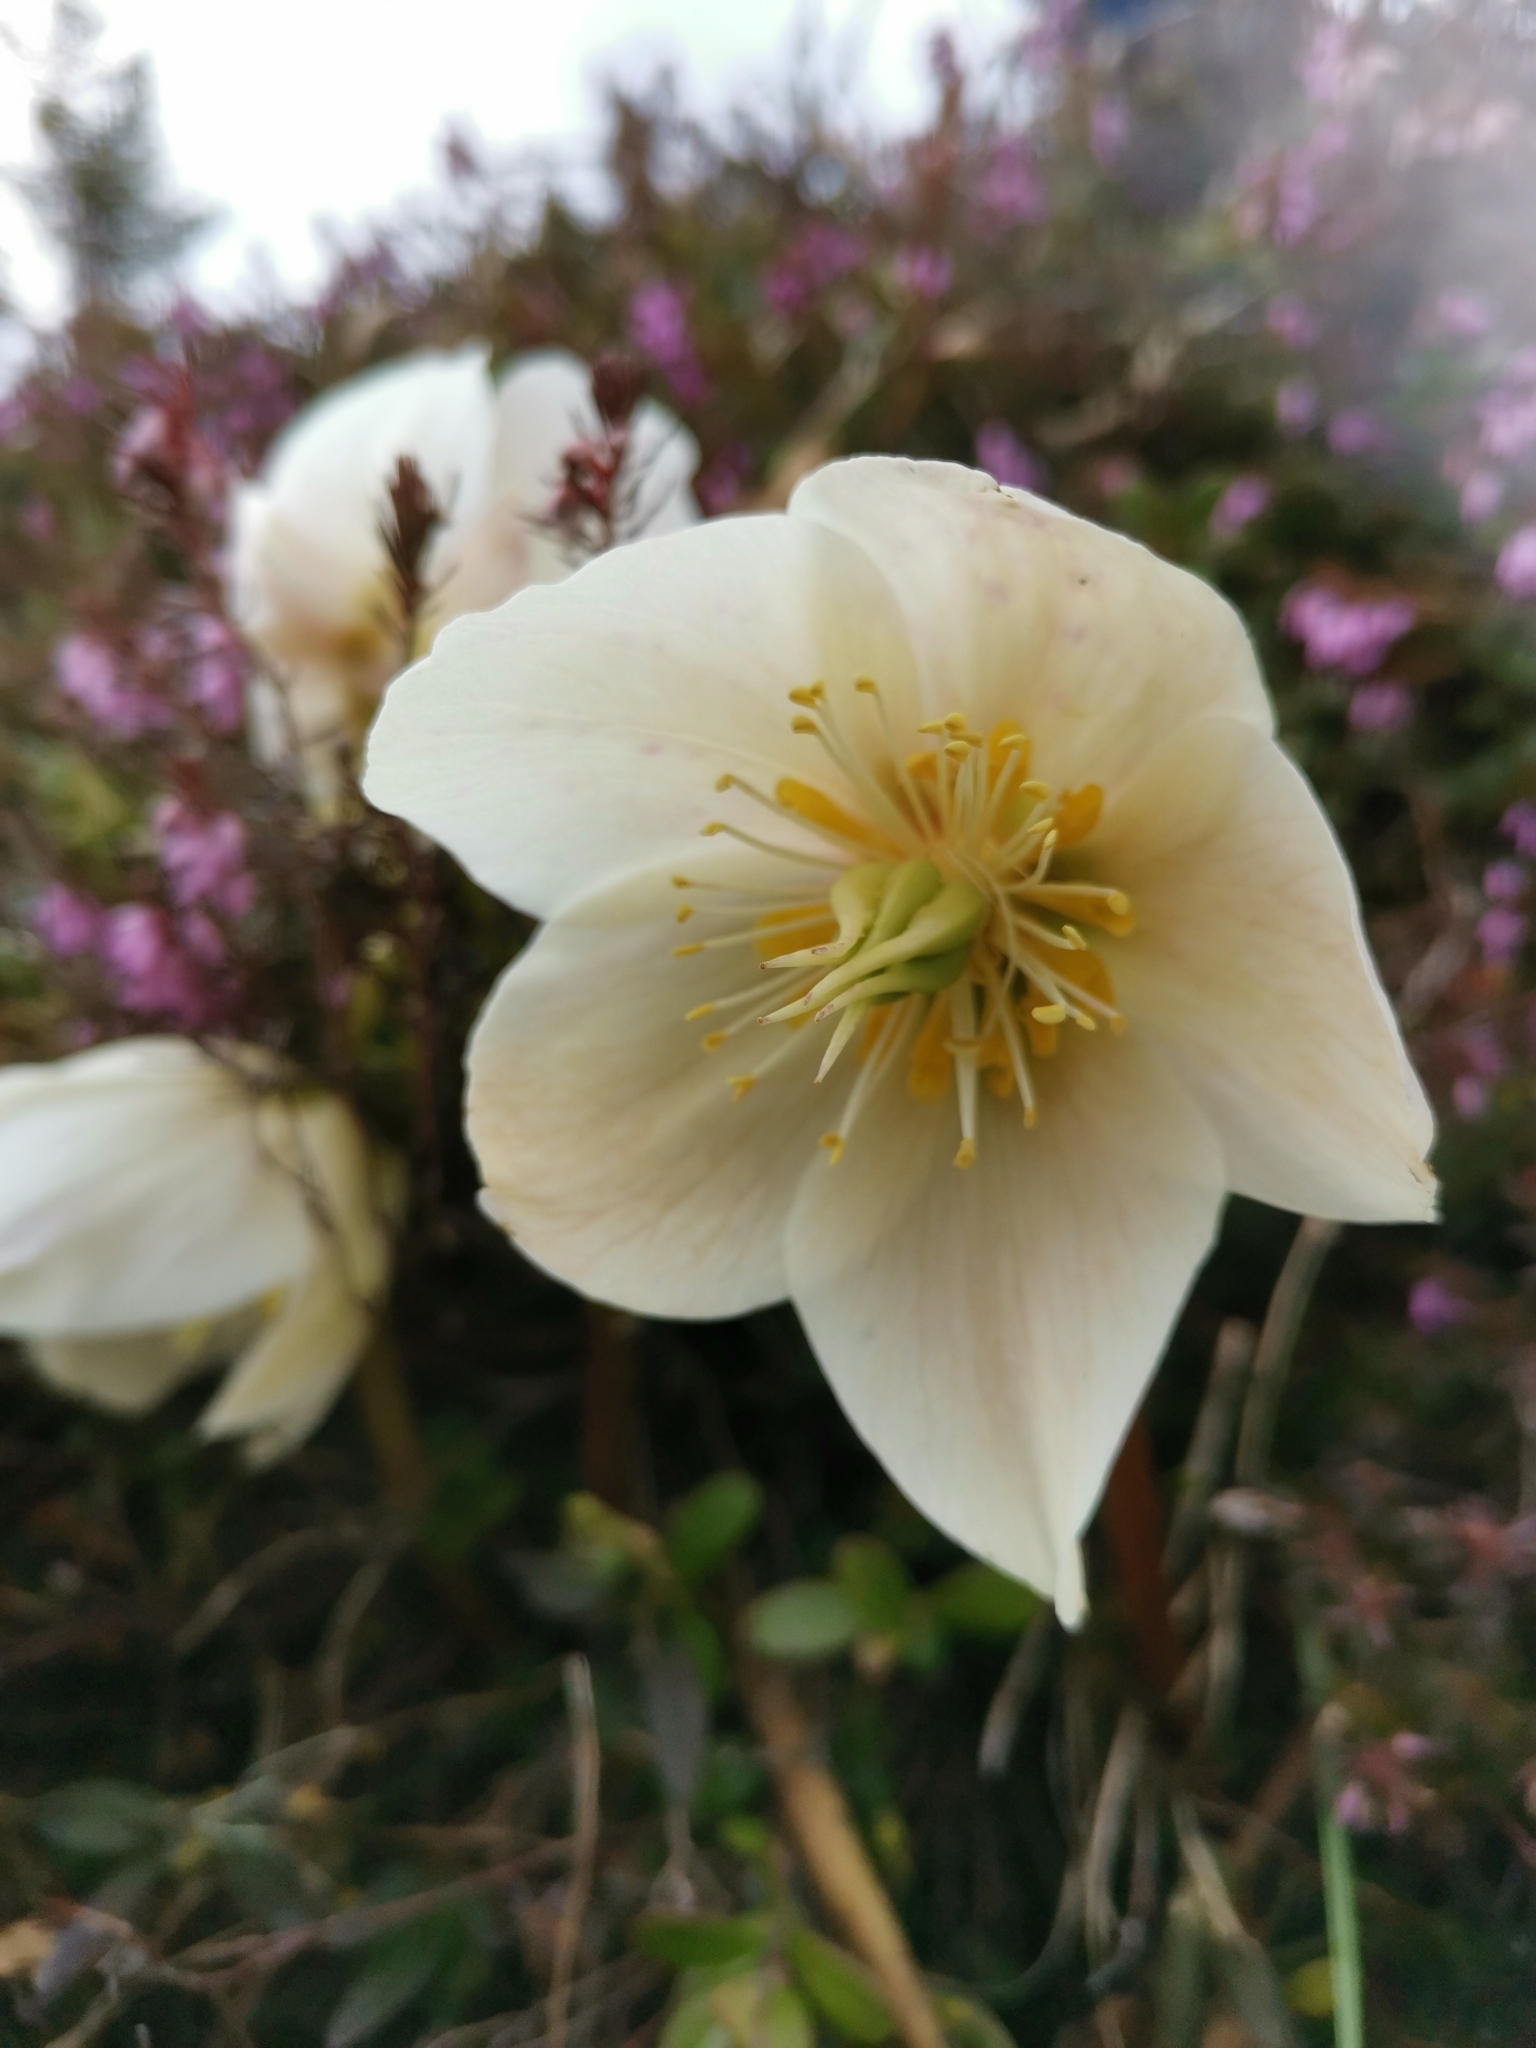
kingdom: Plantae
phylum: Tracheophyta
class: Magnoliopsida
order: Ranunculales
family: Ranunculaceae
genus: Helleborus
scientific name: Helleborus niger
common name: Black hellebore
